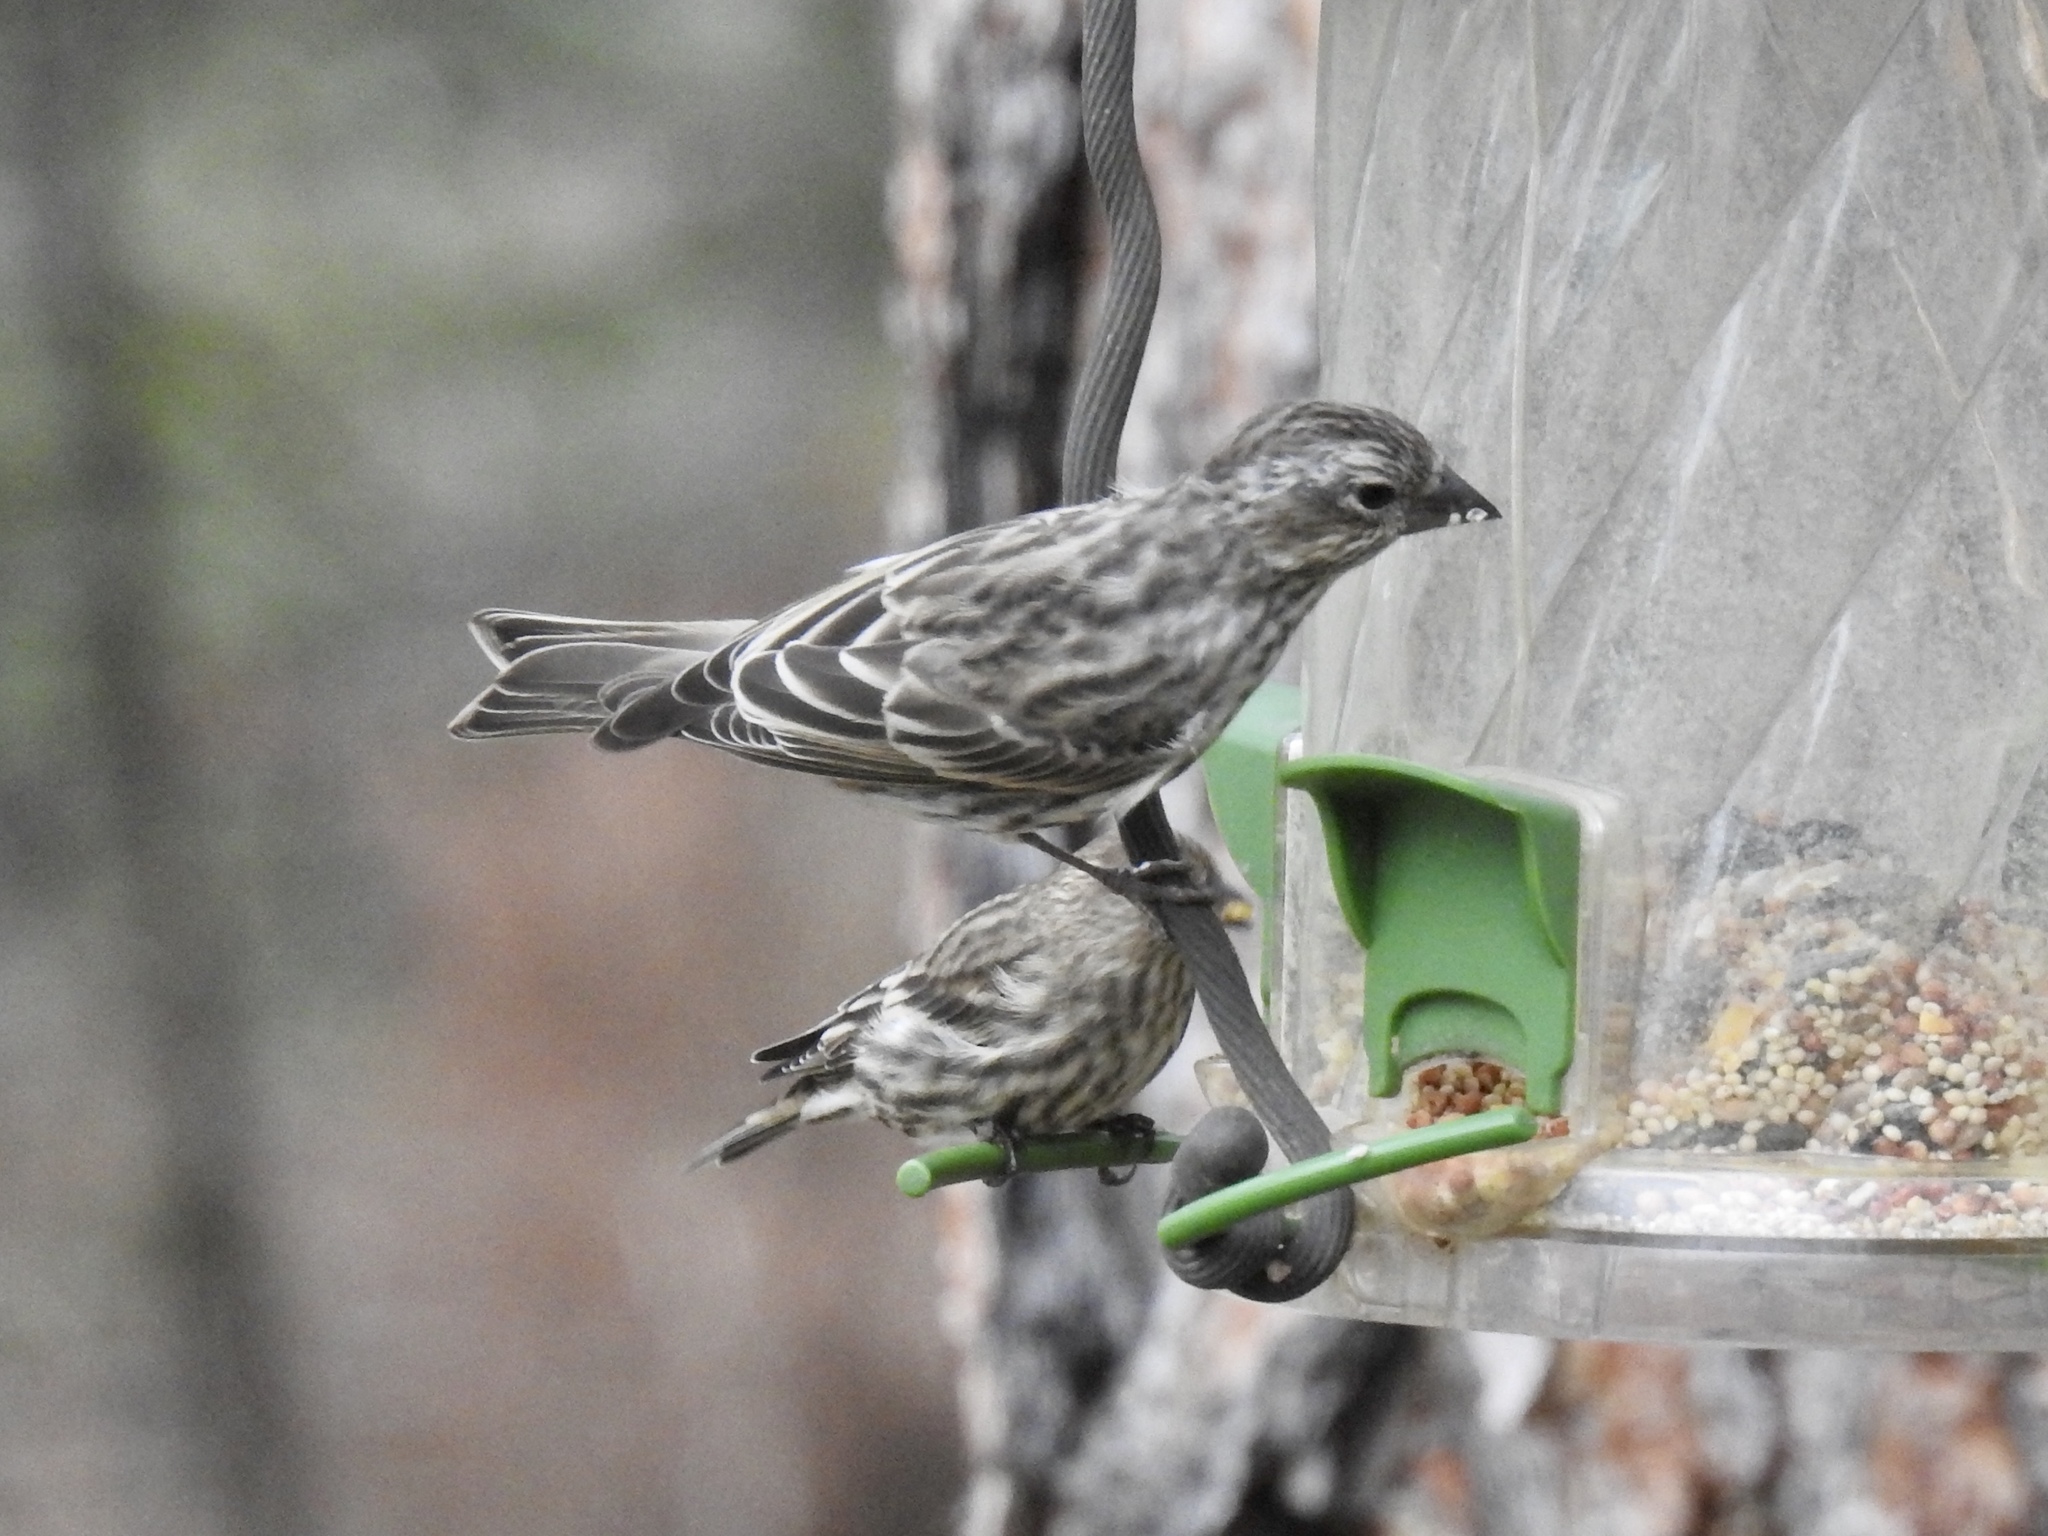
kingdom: Animalia
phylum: Chordata
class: Aves
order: Passeriformes
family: Fringillidae
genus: Haemorhous
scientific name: Haemorhous cassinii
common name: Cassin's finch
